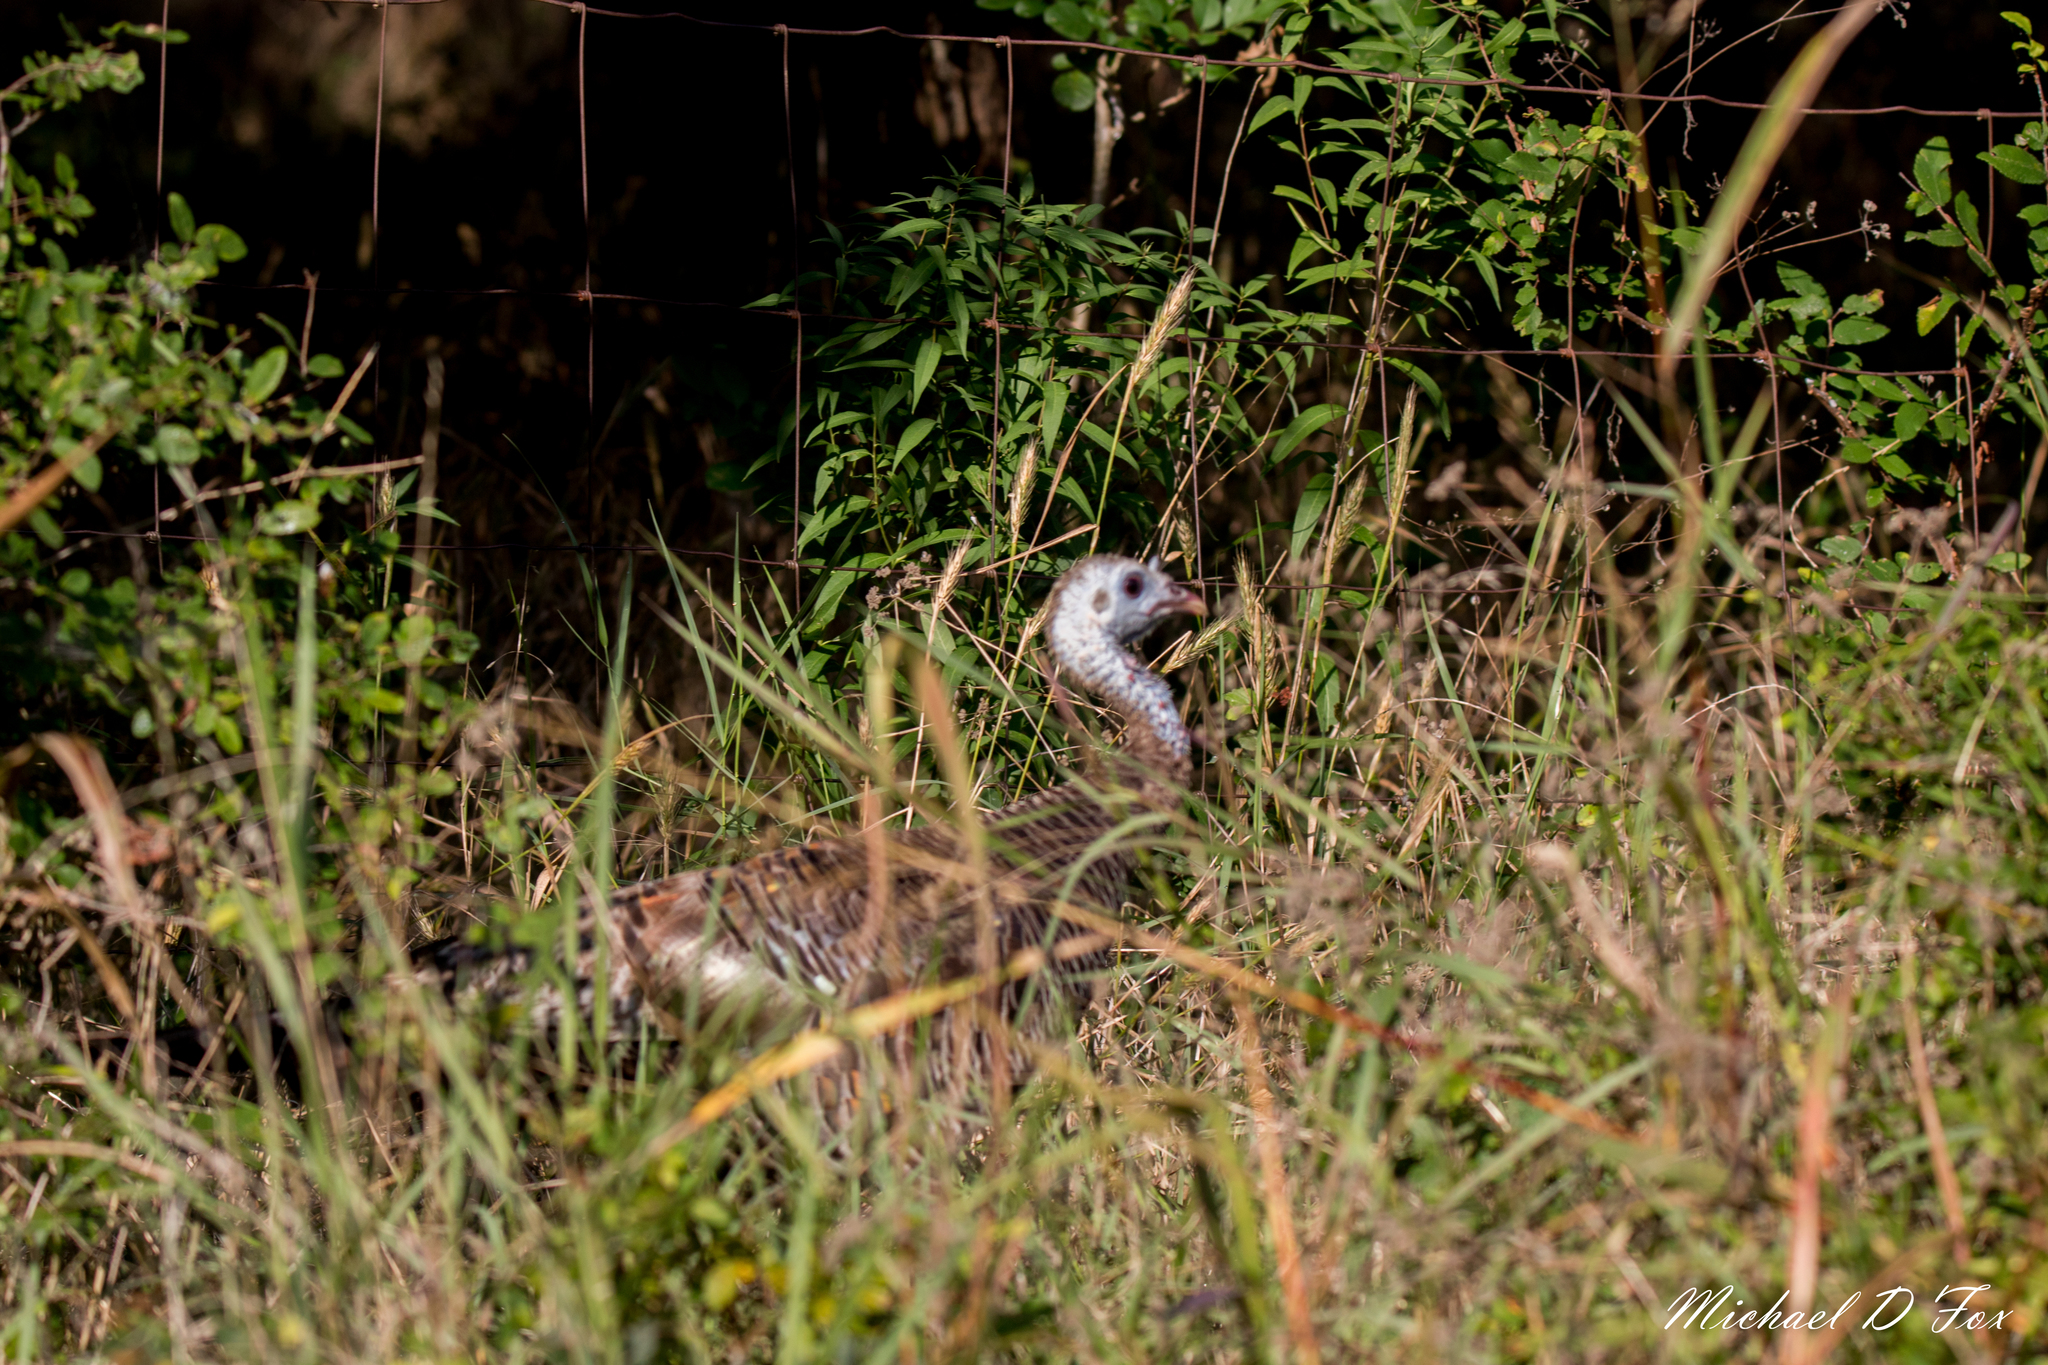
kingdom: Animalia
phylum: Chordata
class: Aves
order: Galliformes
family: Phasianidae
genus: Meleagris
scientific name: Meleagris gallopavo
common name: Wild turkey
